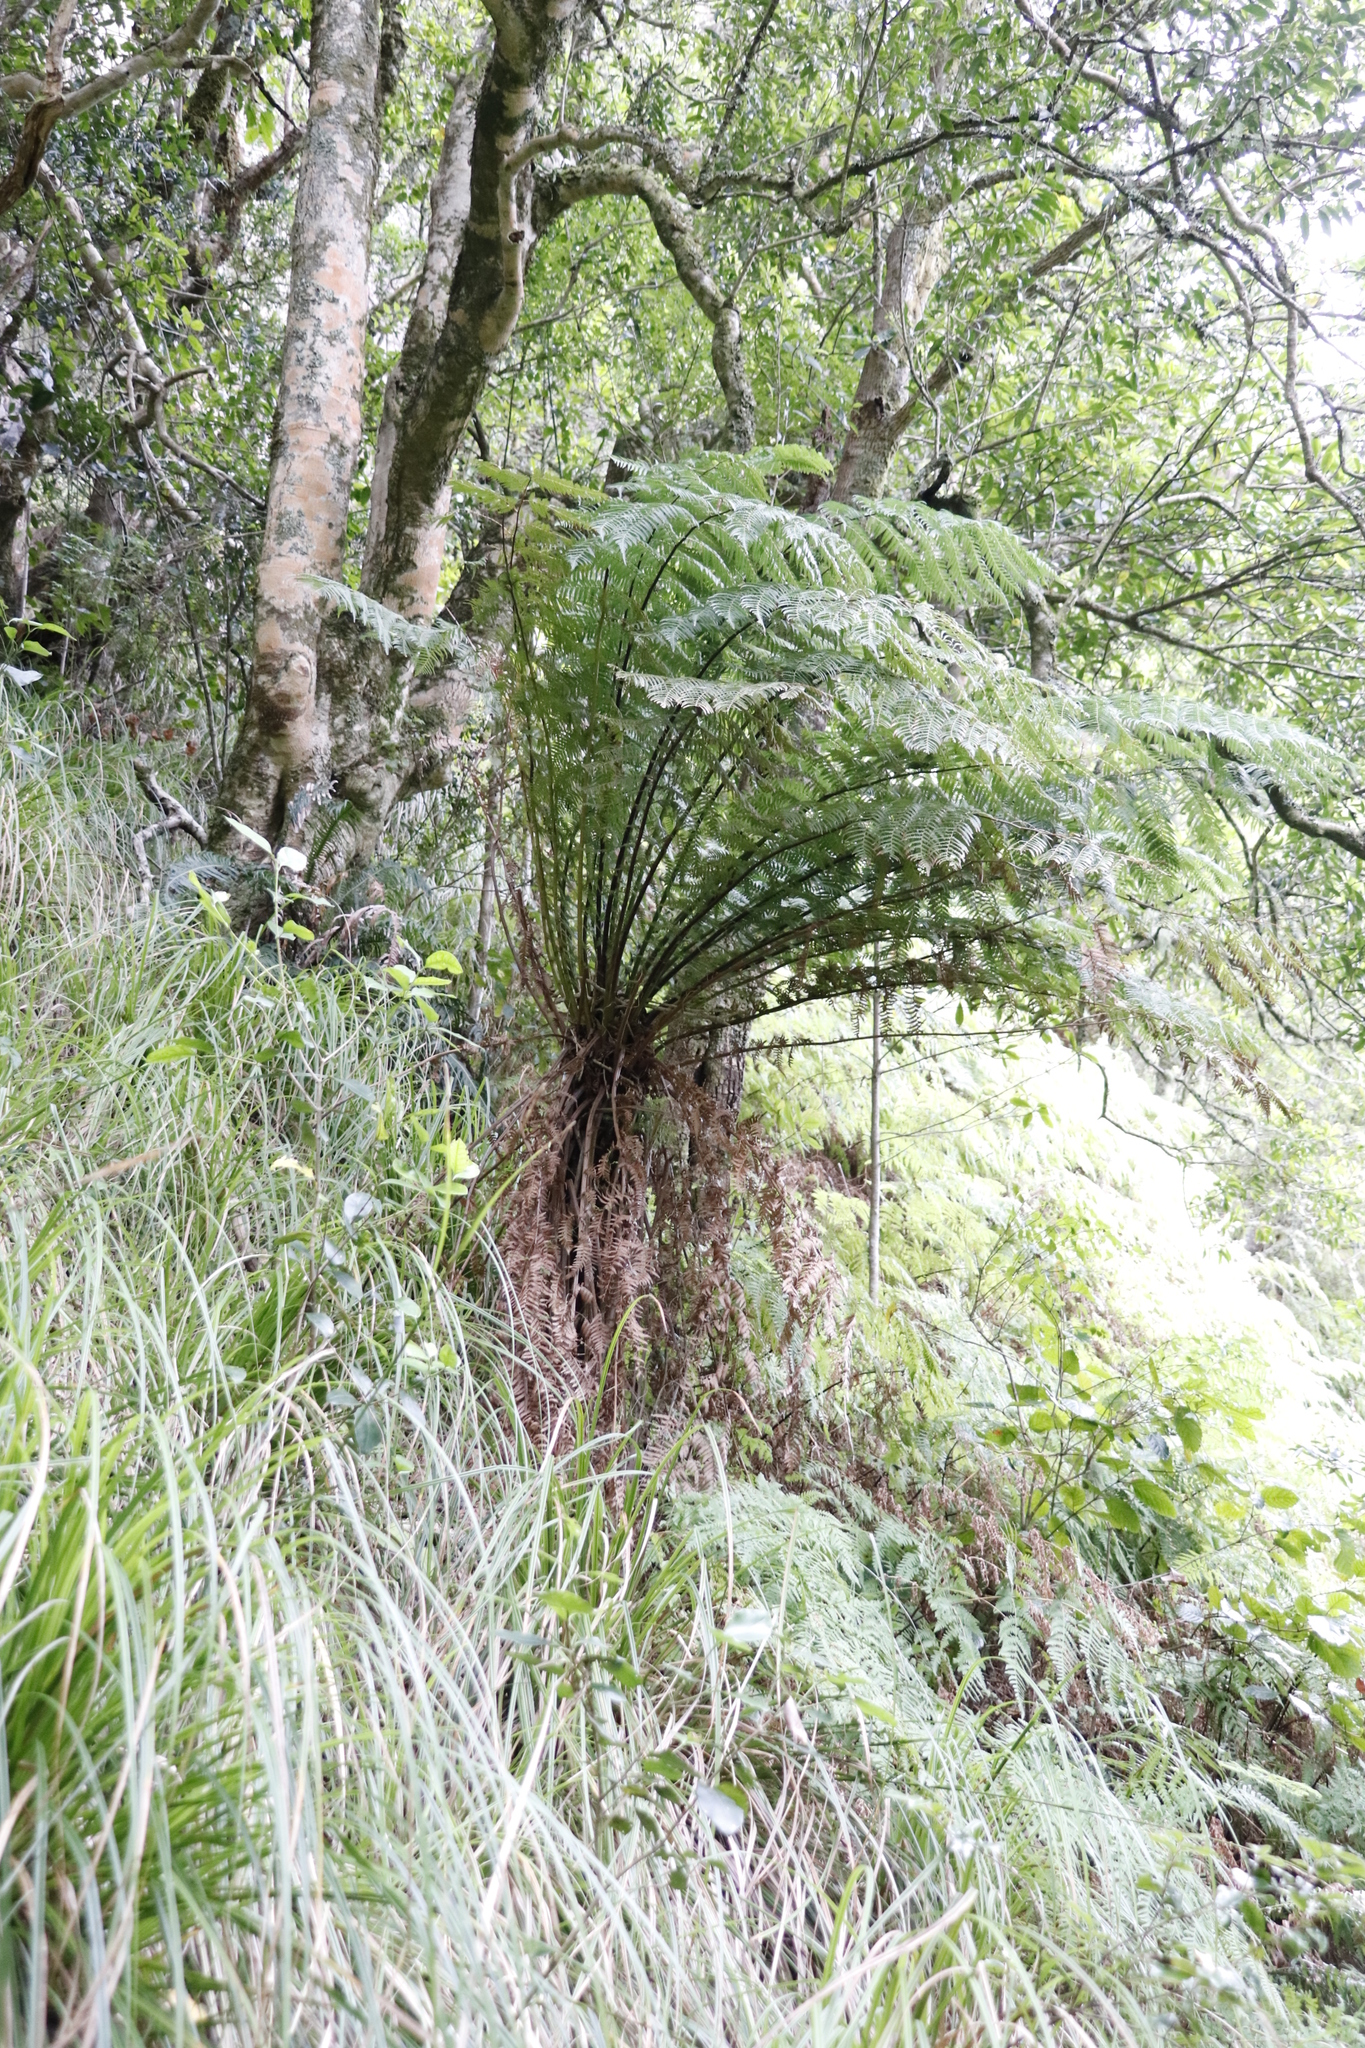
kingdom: Plantae
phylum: Tracheophyta
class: Polypodiopsida
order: Cyatheales
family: Cyatheaceae
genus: Gymnosphaera
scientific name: Gymnosphaera capensis
